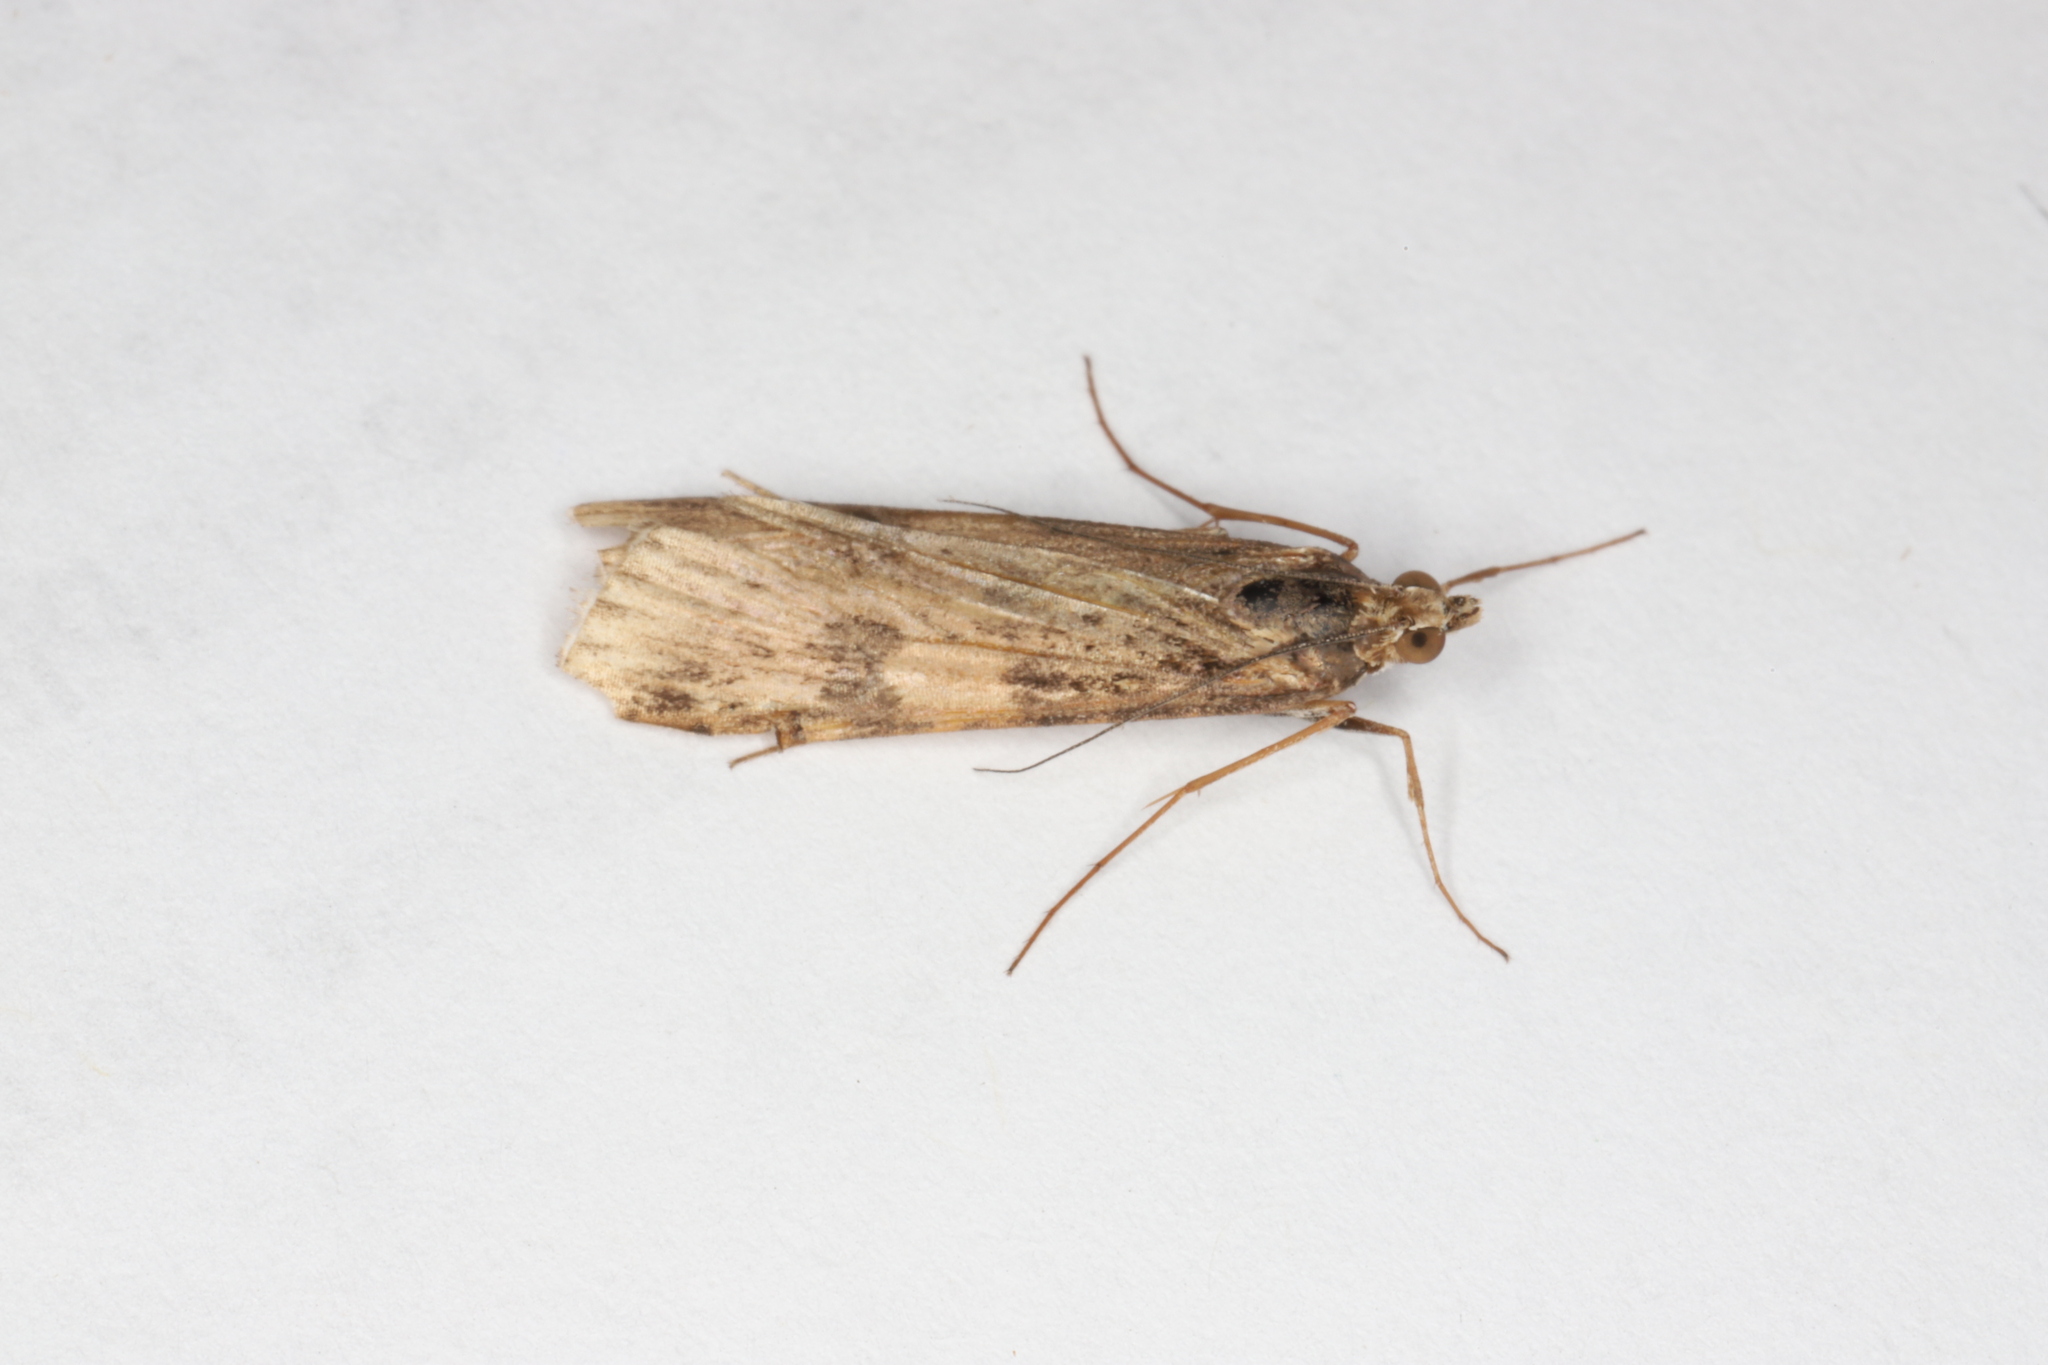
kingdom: Animalia
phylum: Arthropoda
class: Insecta
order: Lepidoptera
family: Crambidae
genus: Nomophila
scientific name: Nomophila nearctica
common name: American rush veneer
